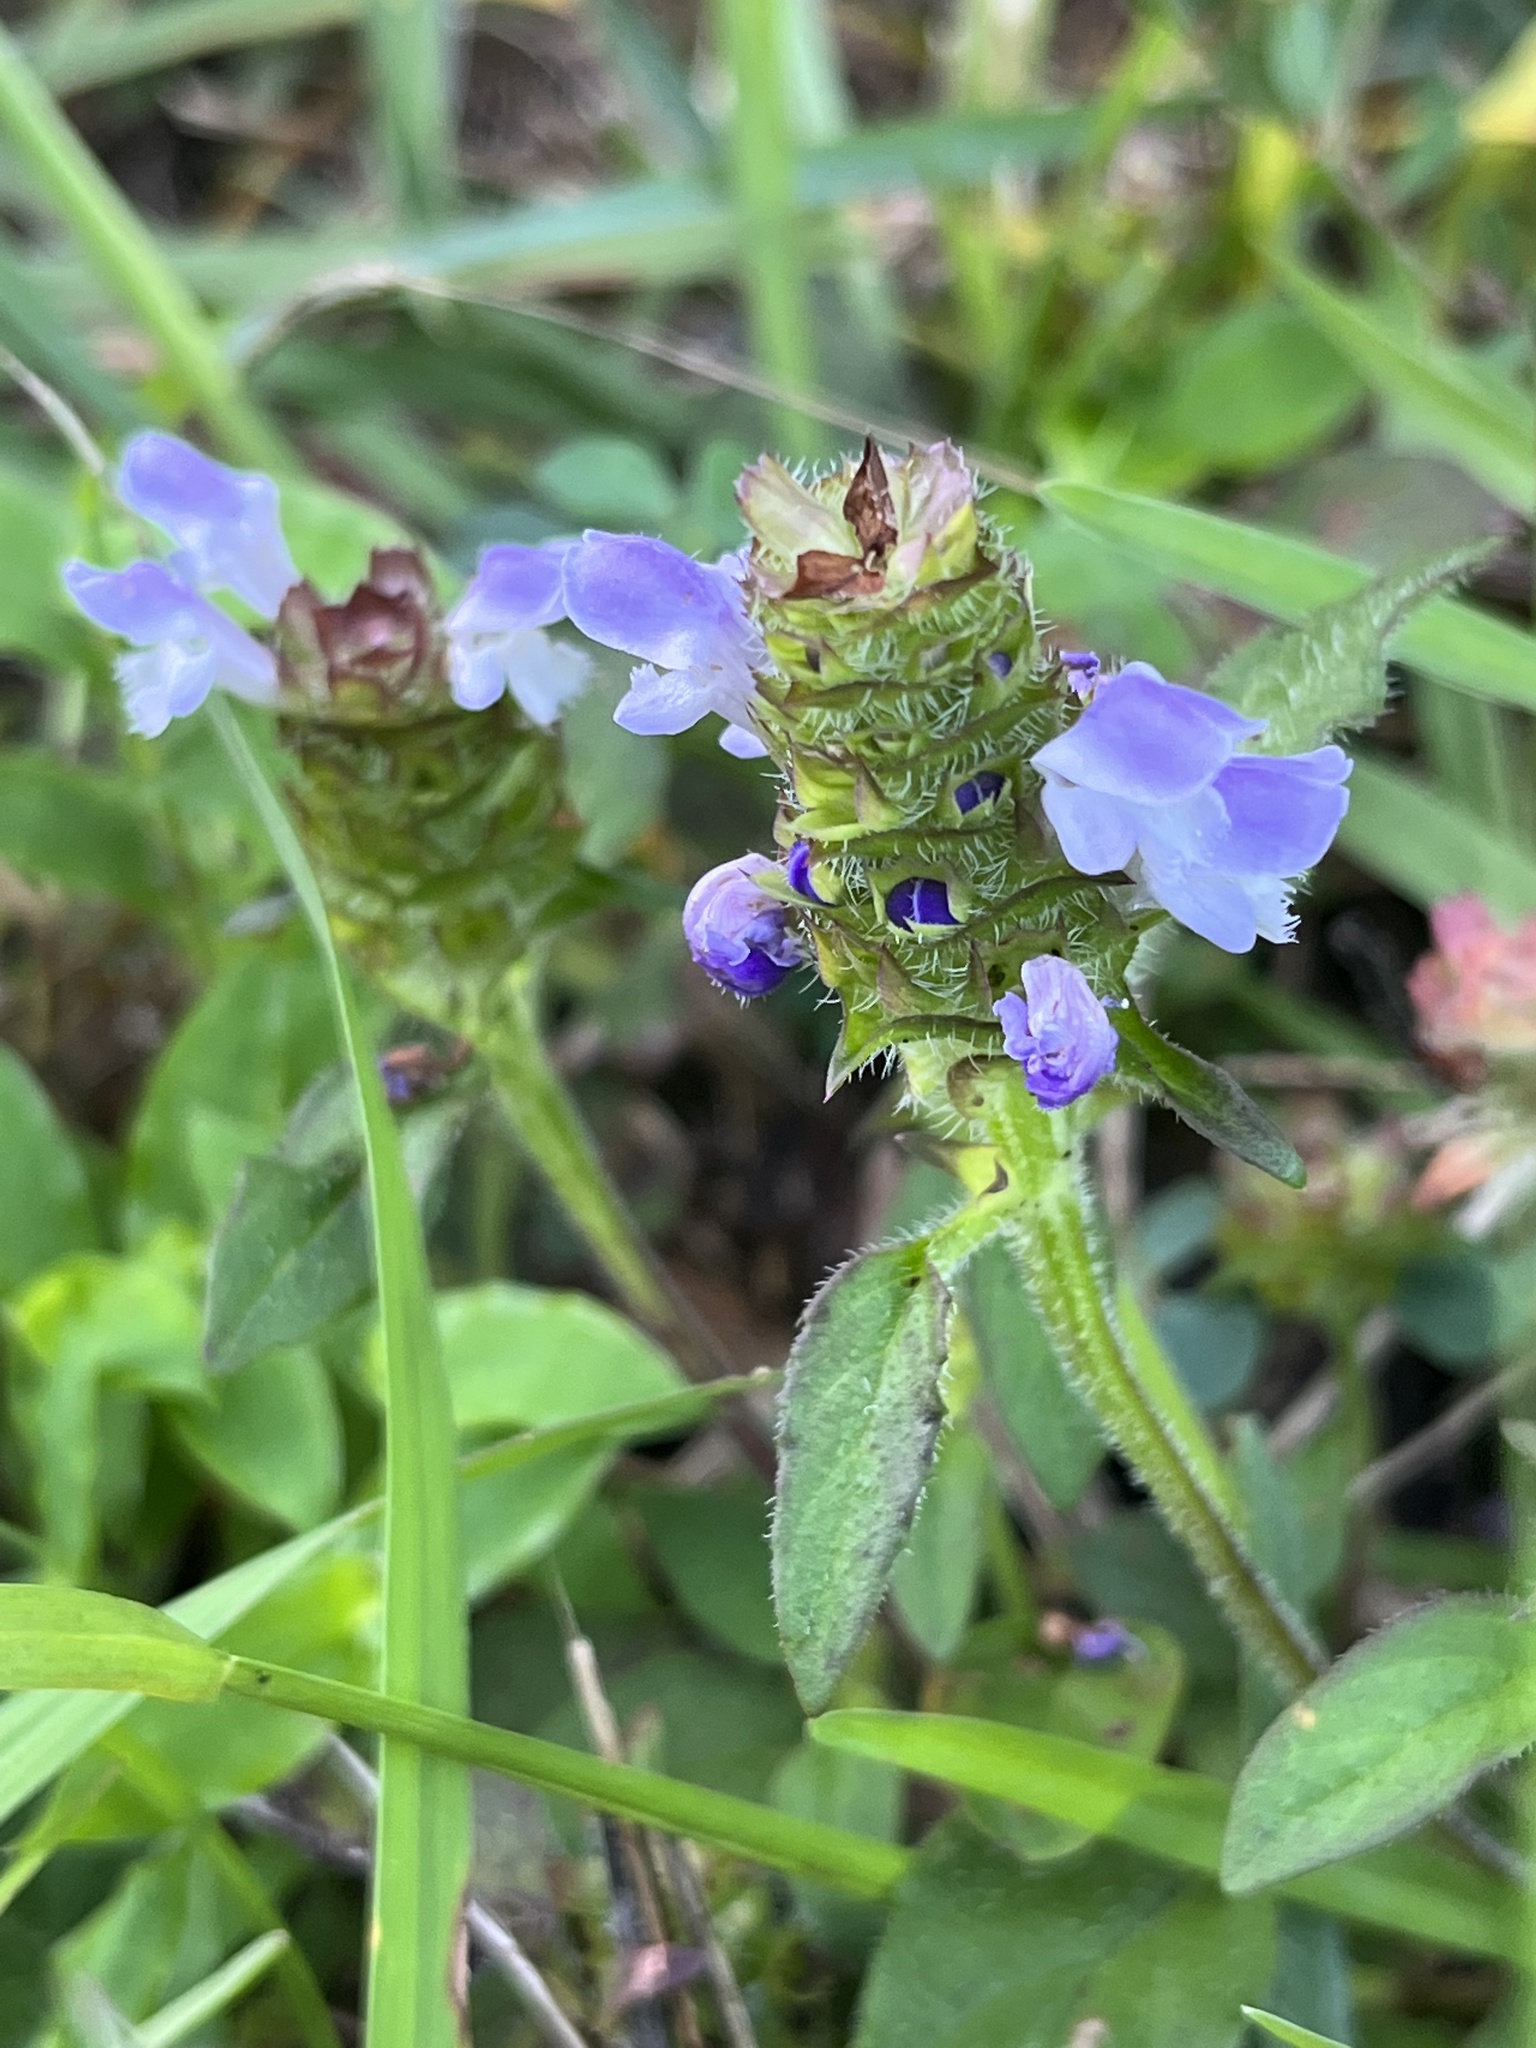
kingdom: Plantae
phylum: Tracheophyta
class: Magnoliopsida
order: Lamiales
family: Lamiaceae
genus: Prunella
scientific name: Prunella vulgaris
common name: Heal-all
